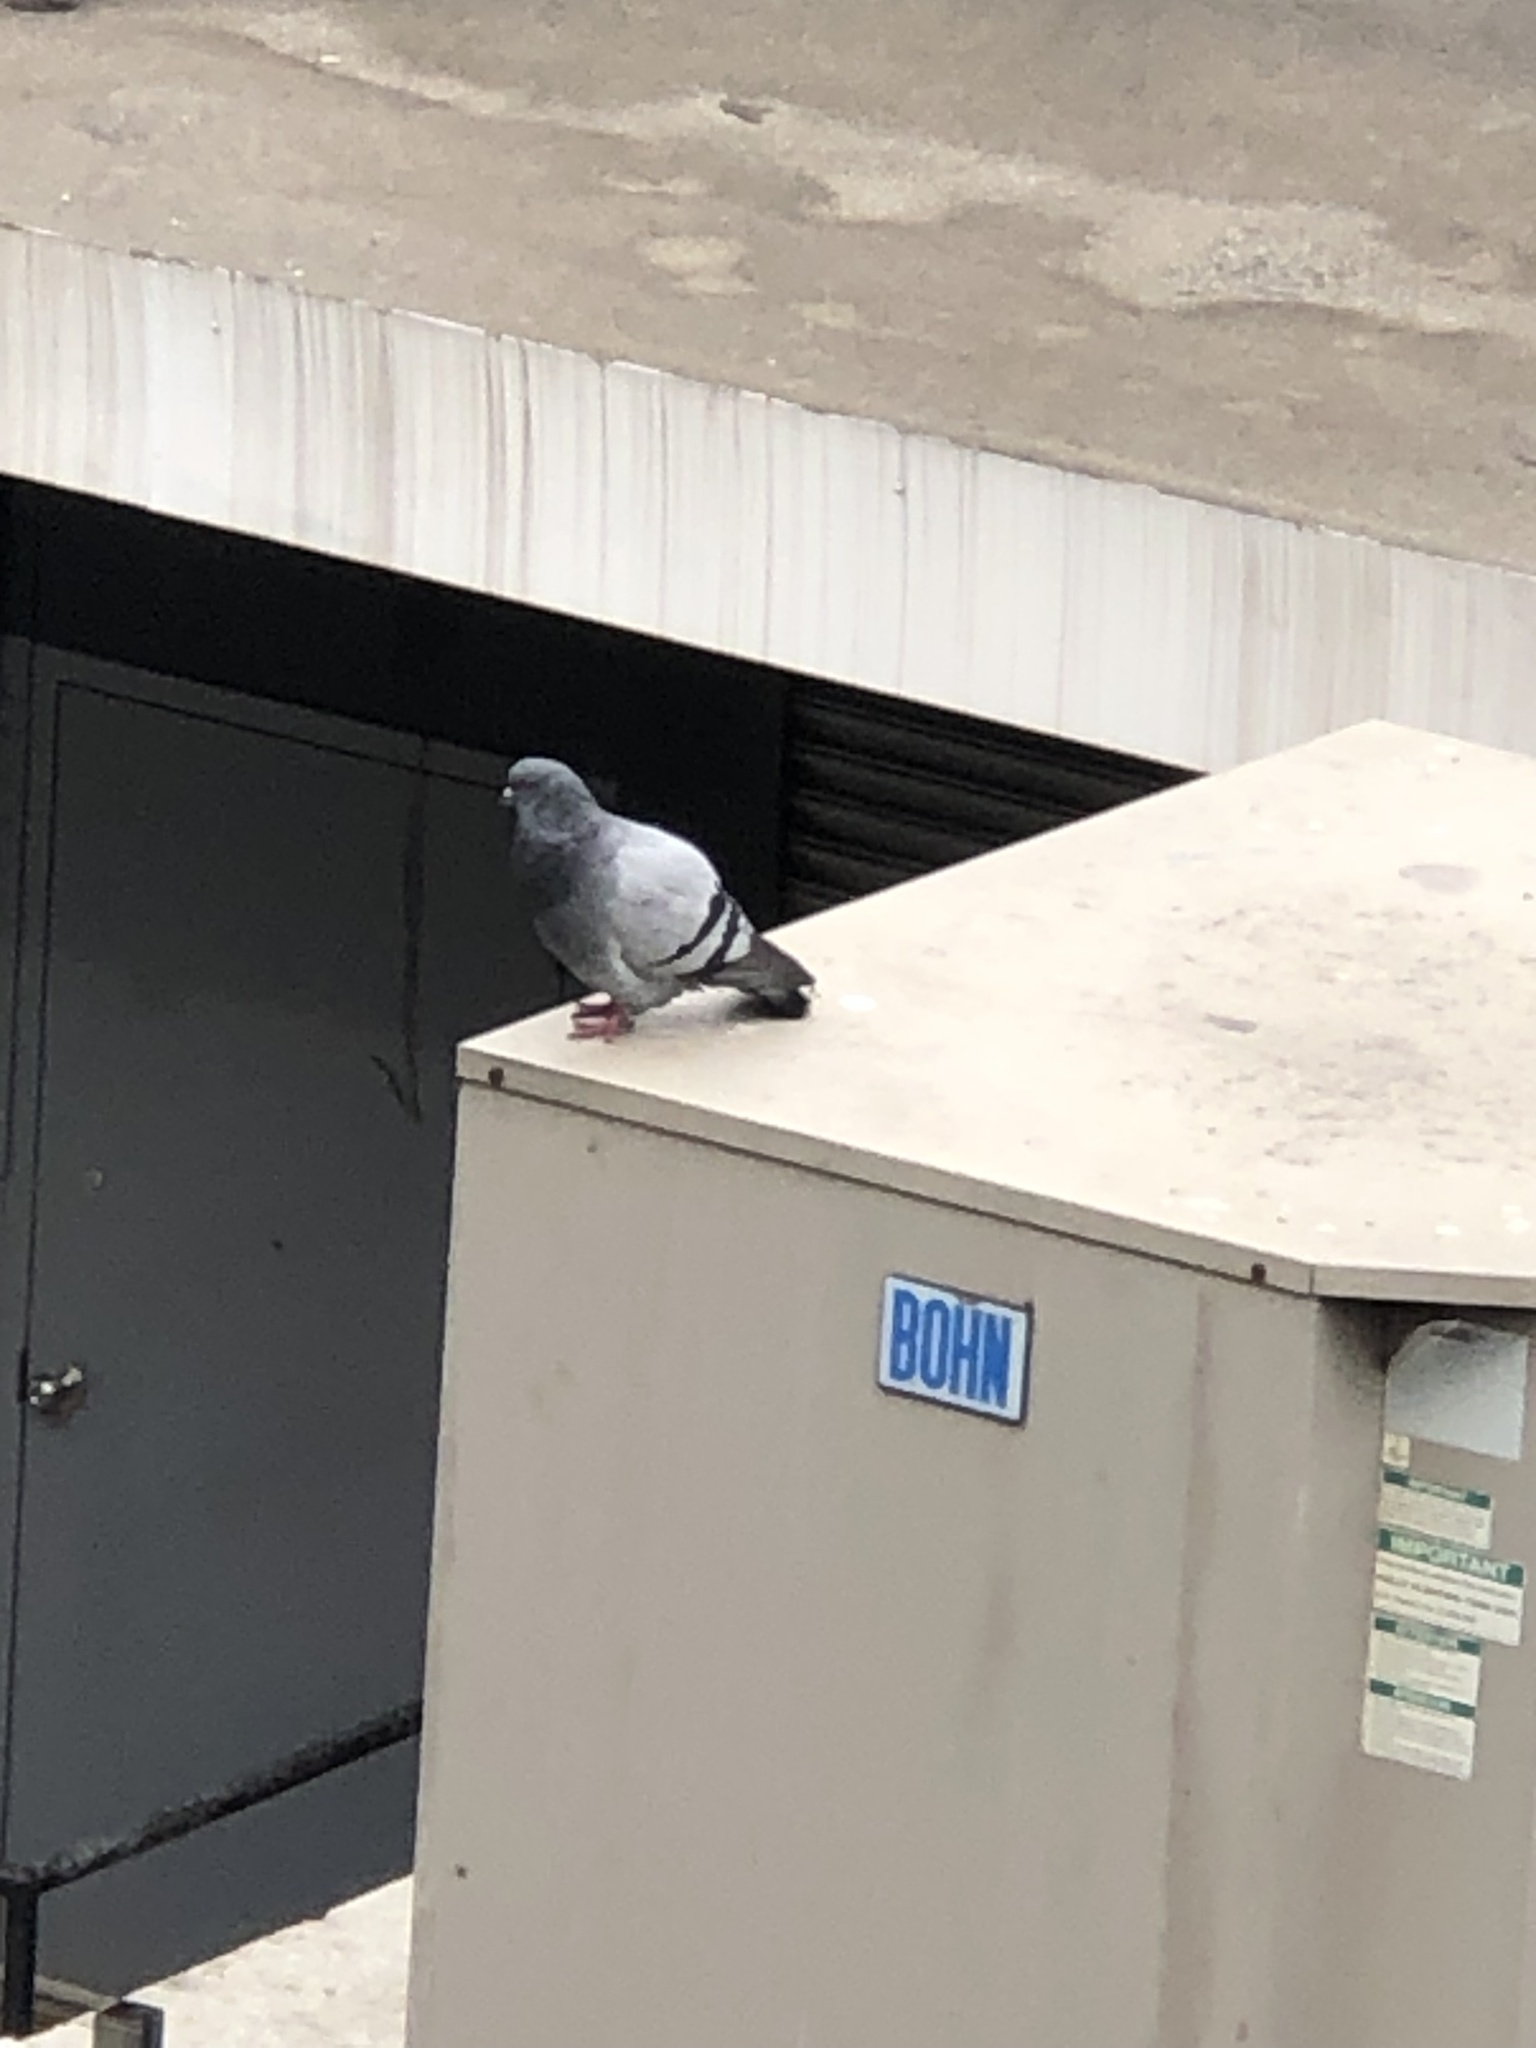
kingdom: Animalia
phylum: Chordata
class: Aves
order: Columbiformes
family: Columbidae
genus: Columba
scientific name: Columba livia
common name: Rock pigeon
